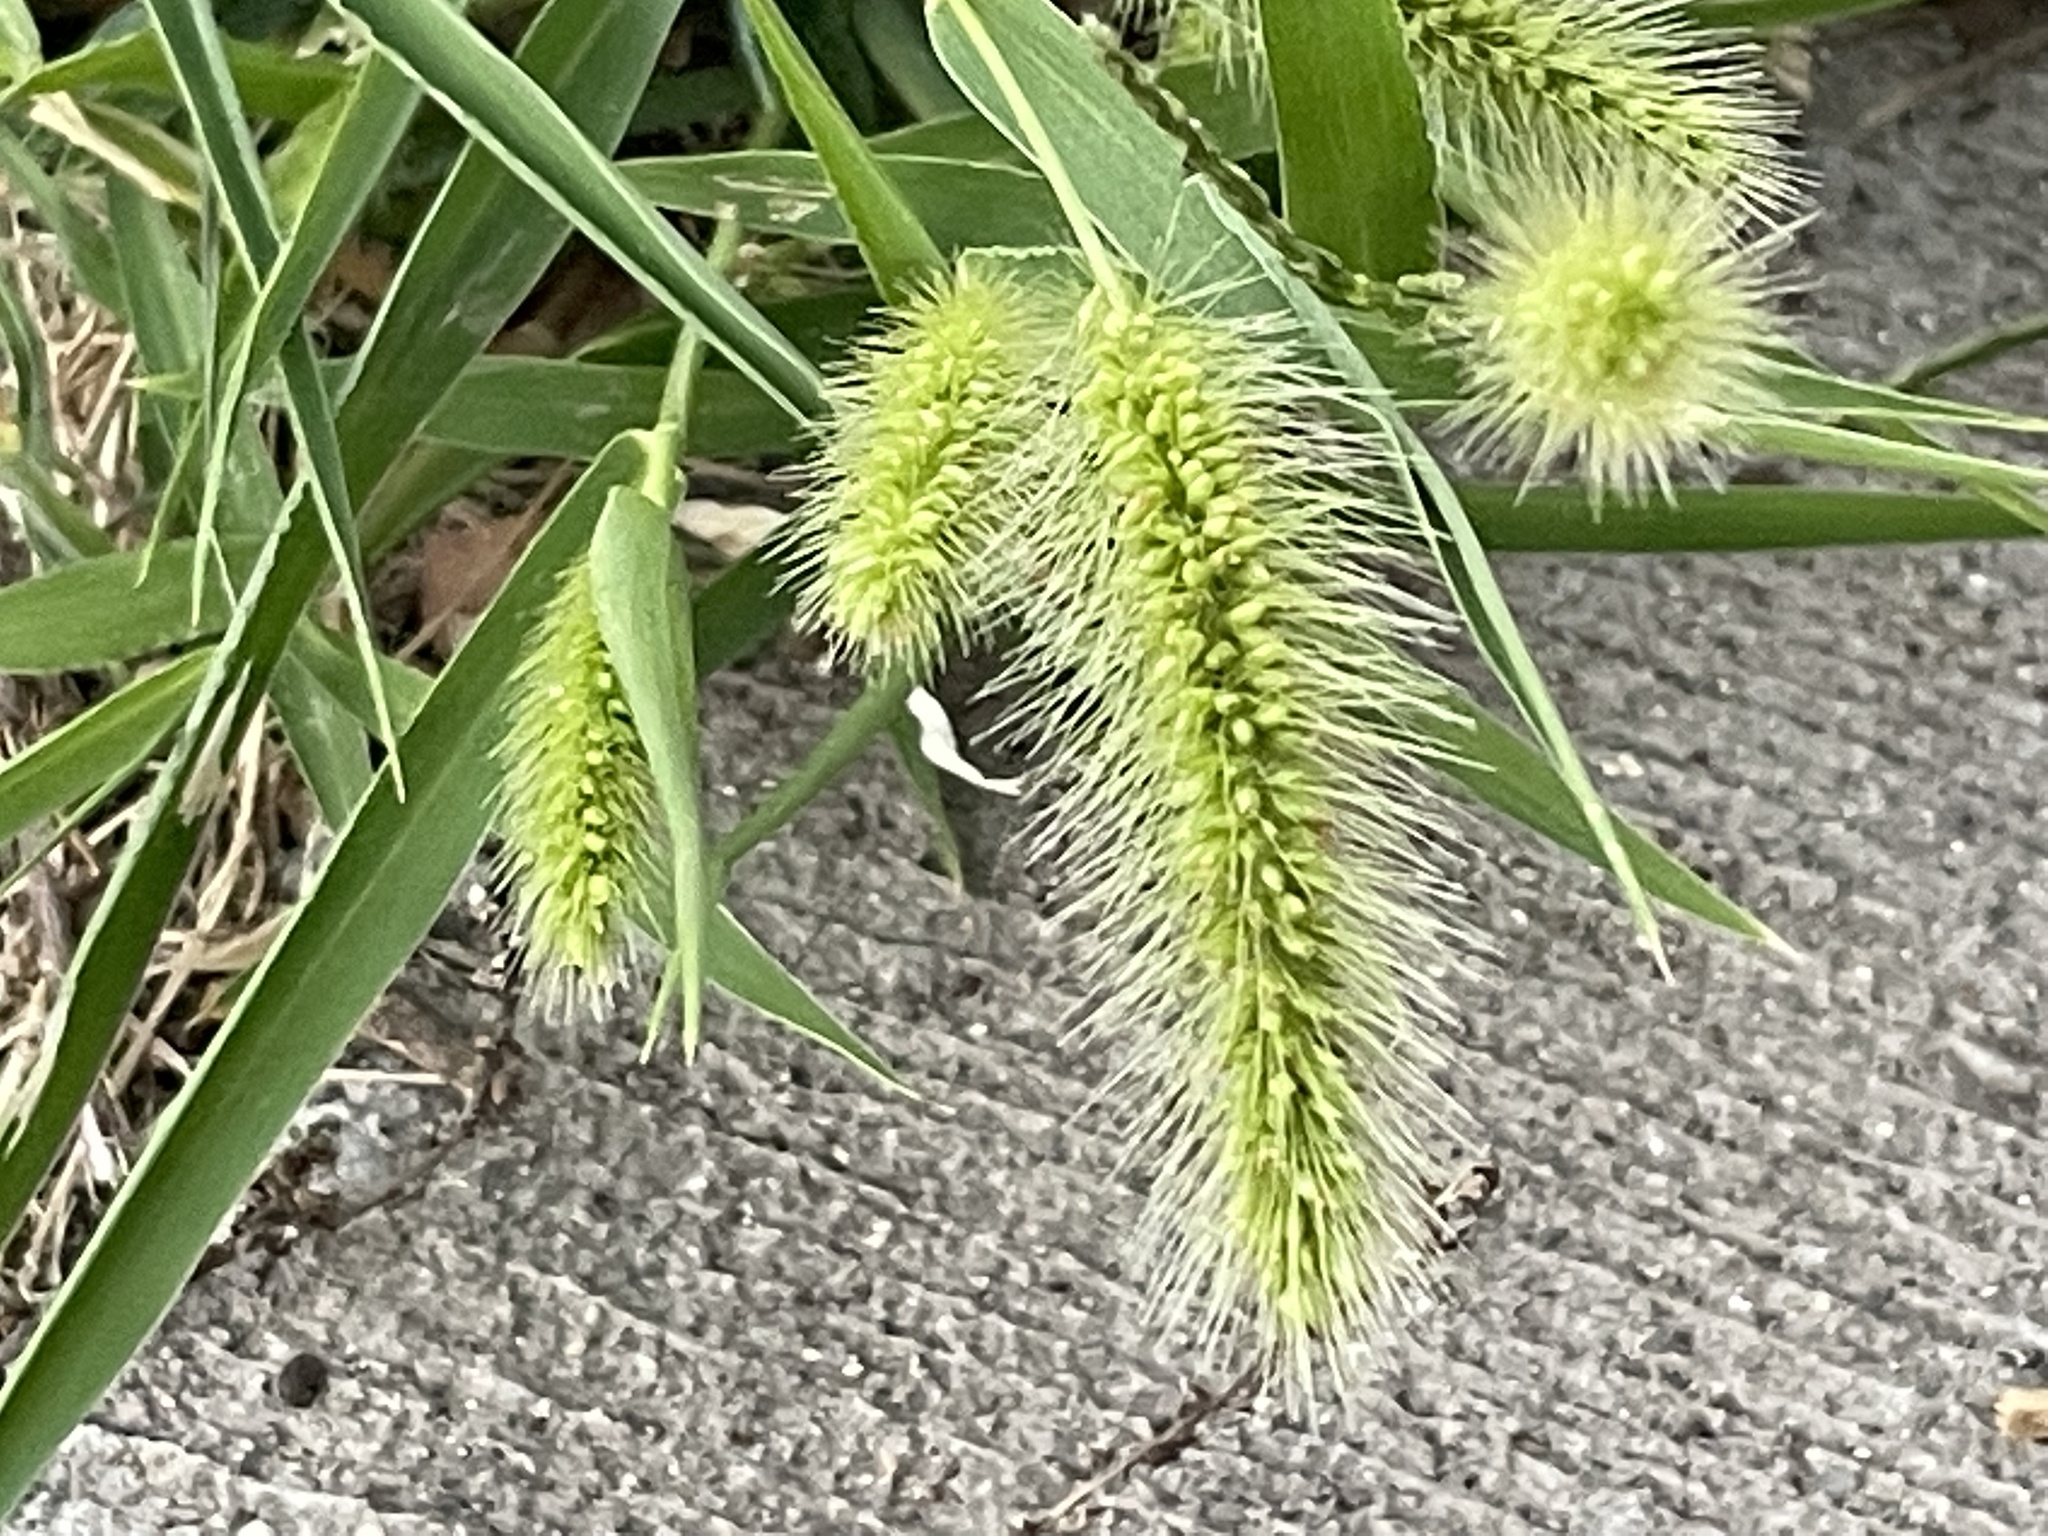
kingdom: Plantae
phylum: Tracheophyta
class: Liliopsida
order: Poales
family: Poaceae
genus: Setaria
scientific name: Setaria viridis
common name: Green bristlegrass
